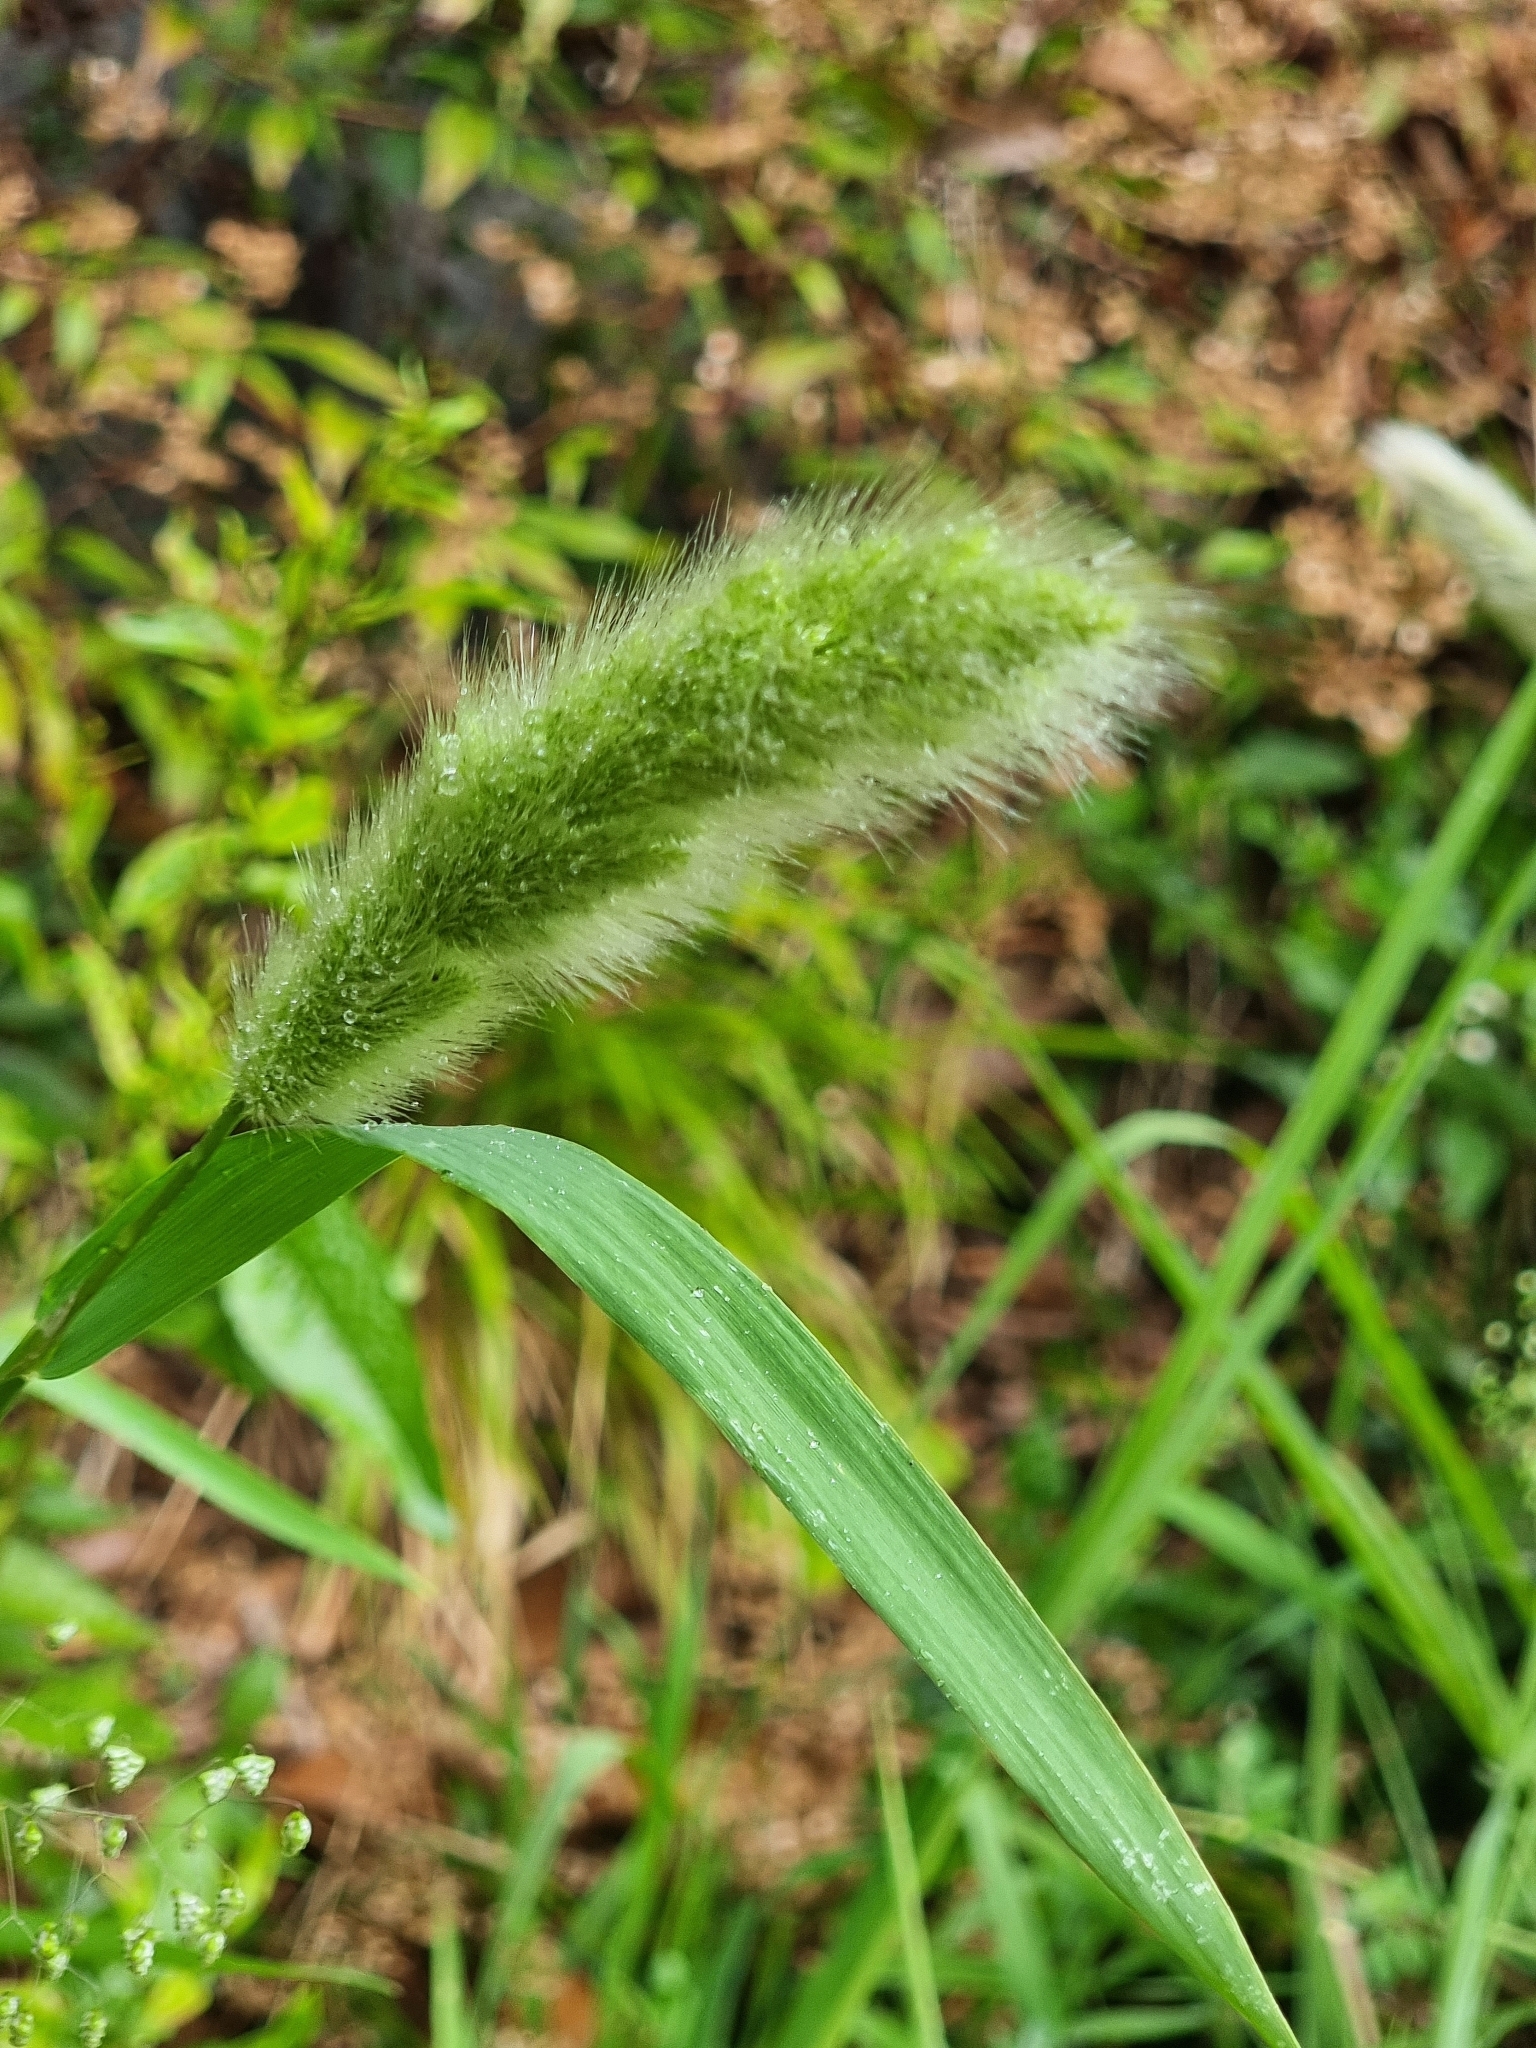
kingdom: Plantae
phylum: Tracheophyta
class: Liliopsida
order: Poales
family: Poaceae
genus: Polypogon
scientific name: Polypogon monspeliensis
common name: Annual rabbitsfoot grass
